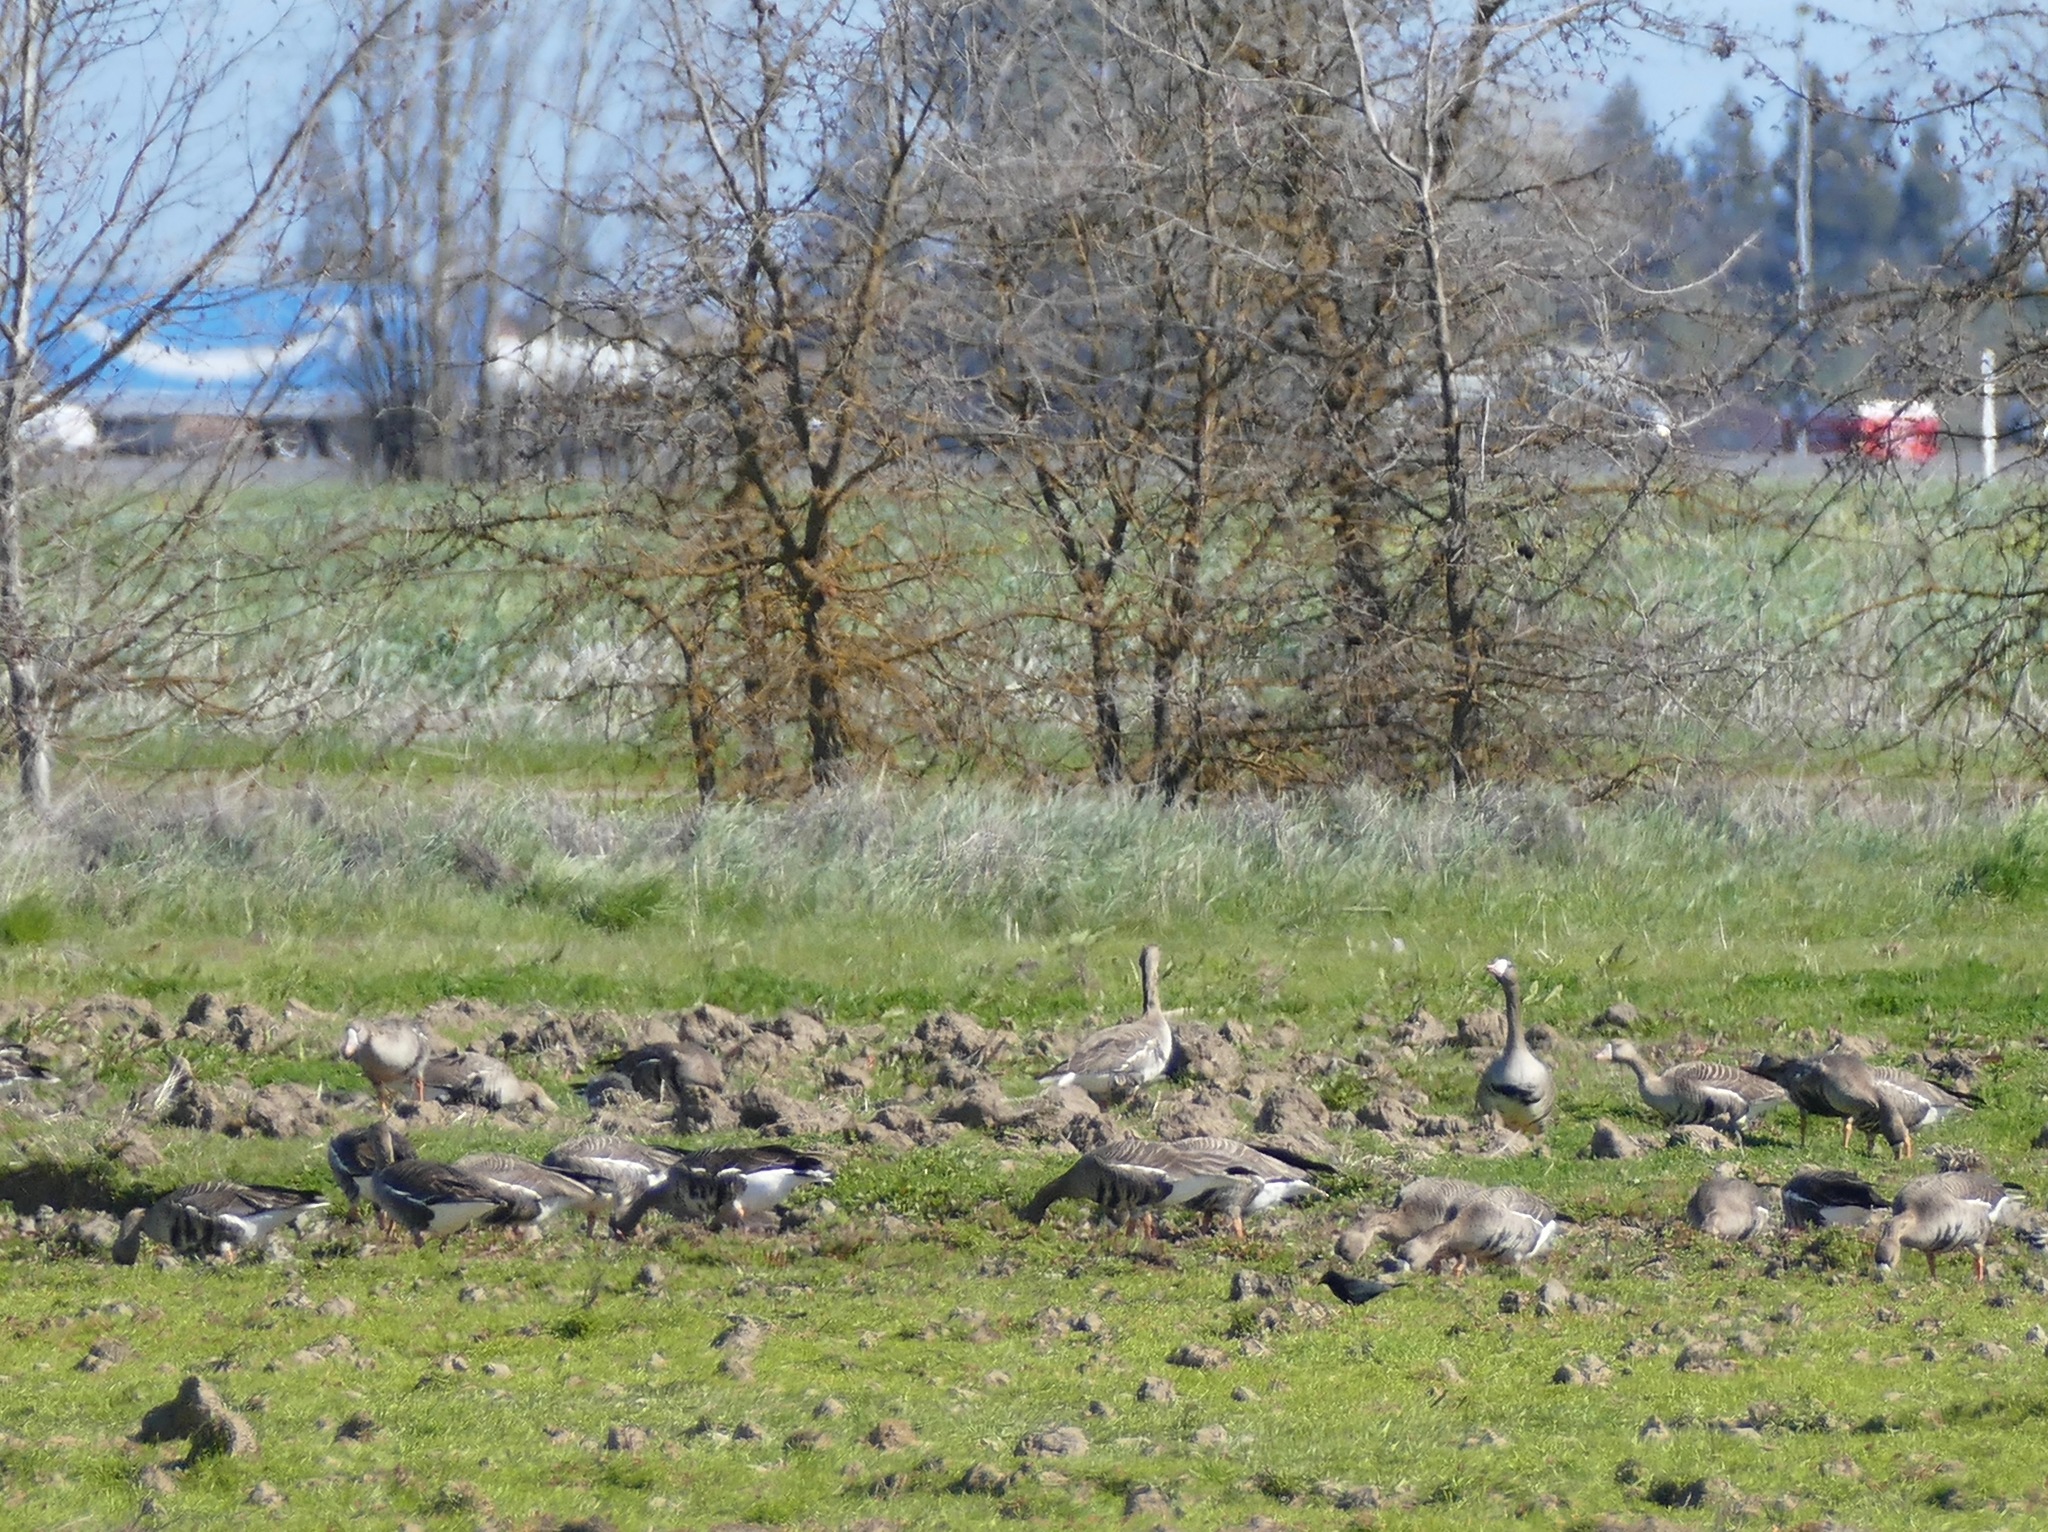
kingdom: Animalia
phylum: Chordata
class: Aves
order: Anseriformes
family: Anatidae
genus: Anser
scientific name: Anser albifrons
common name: Greater white-fronted goose
